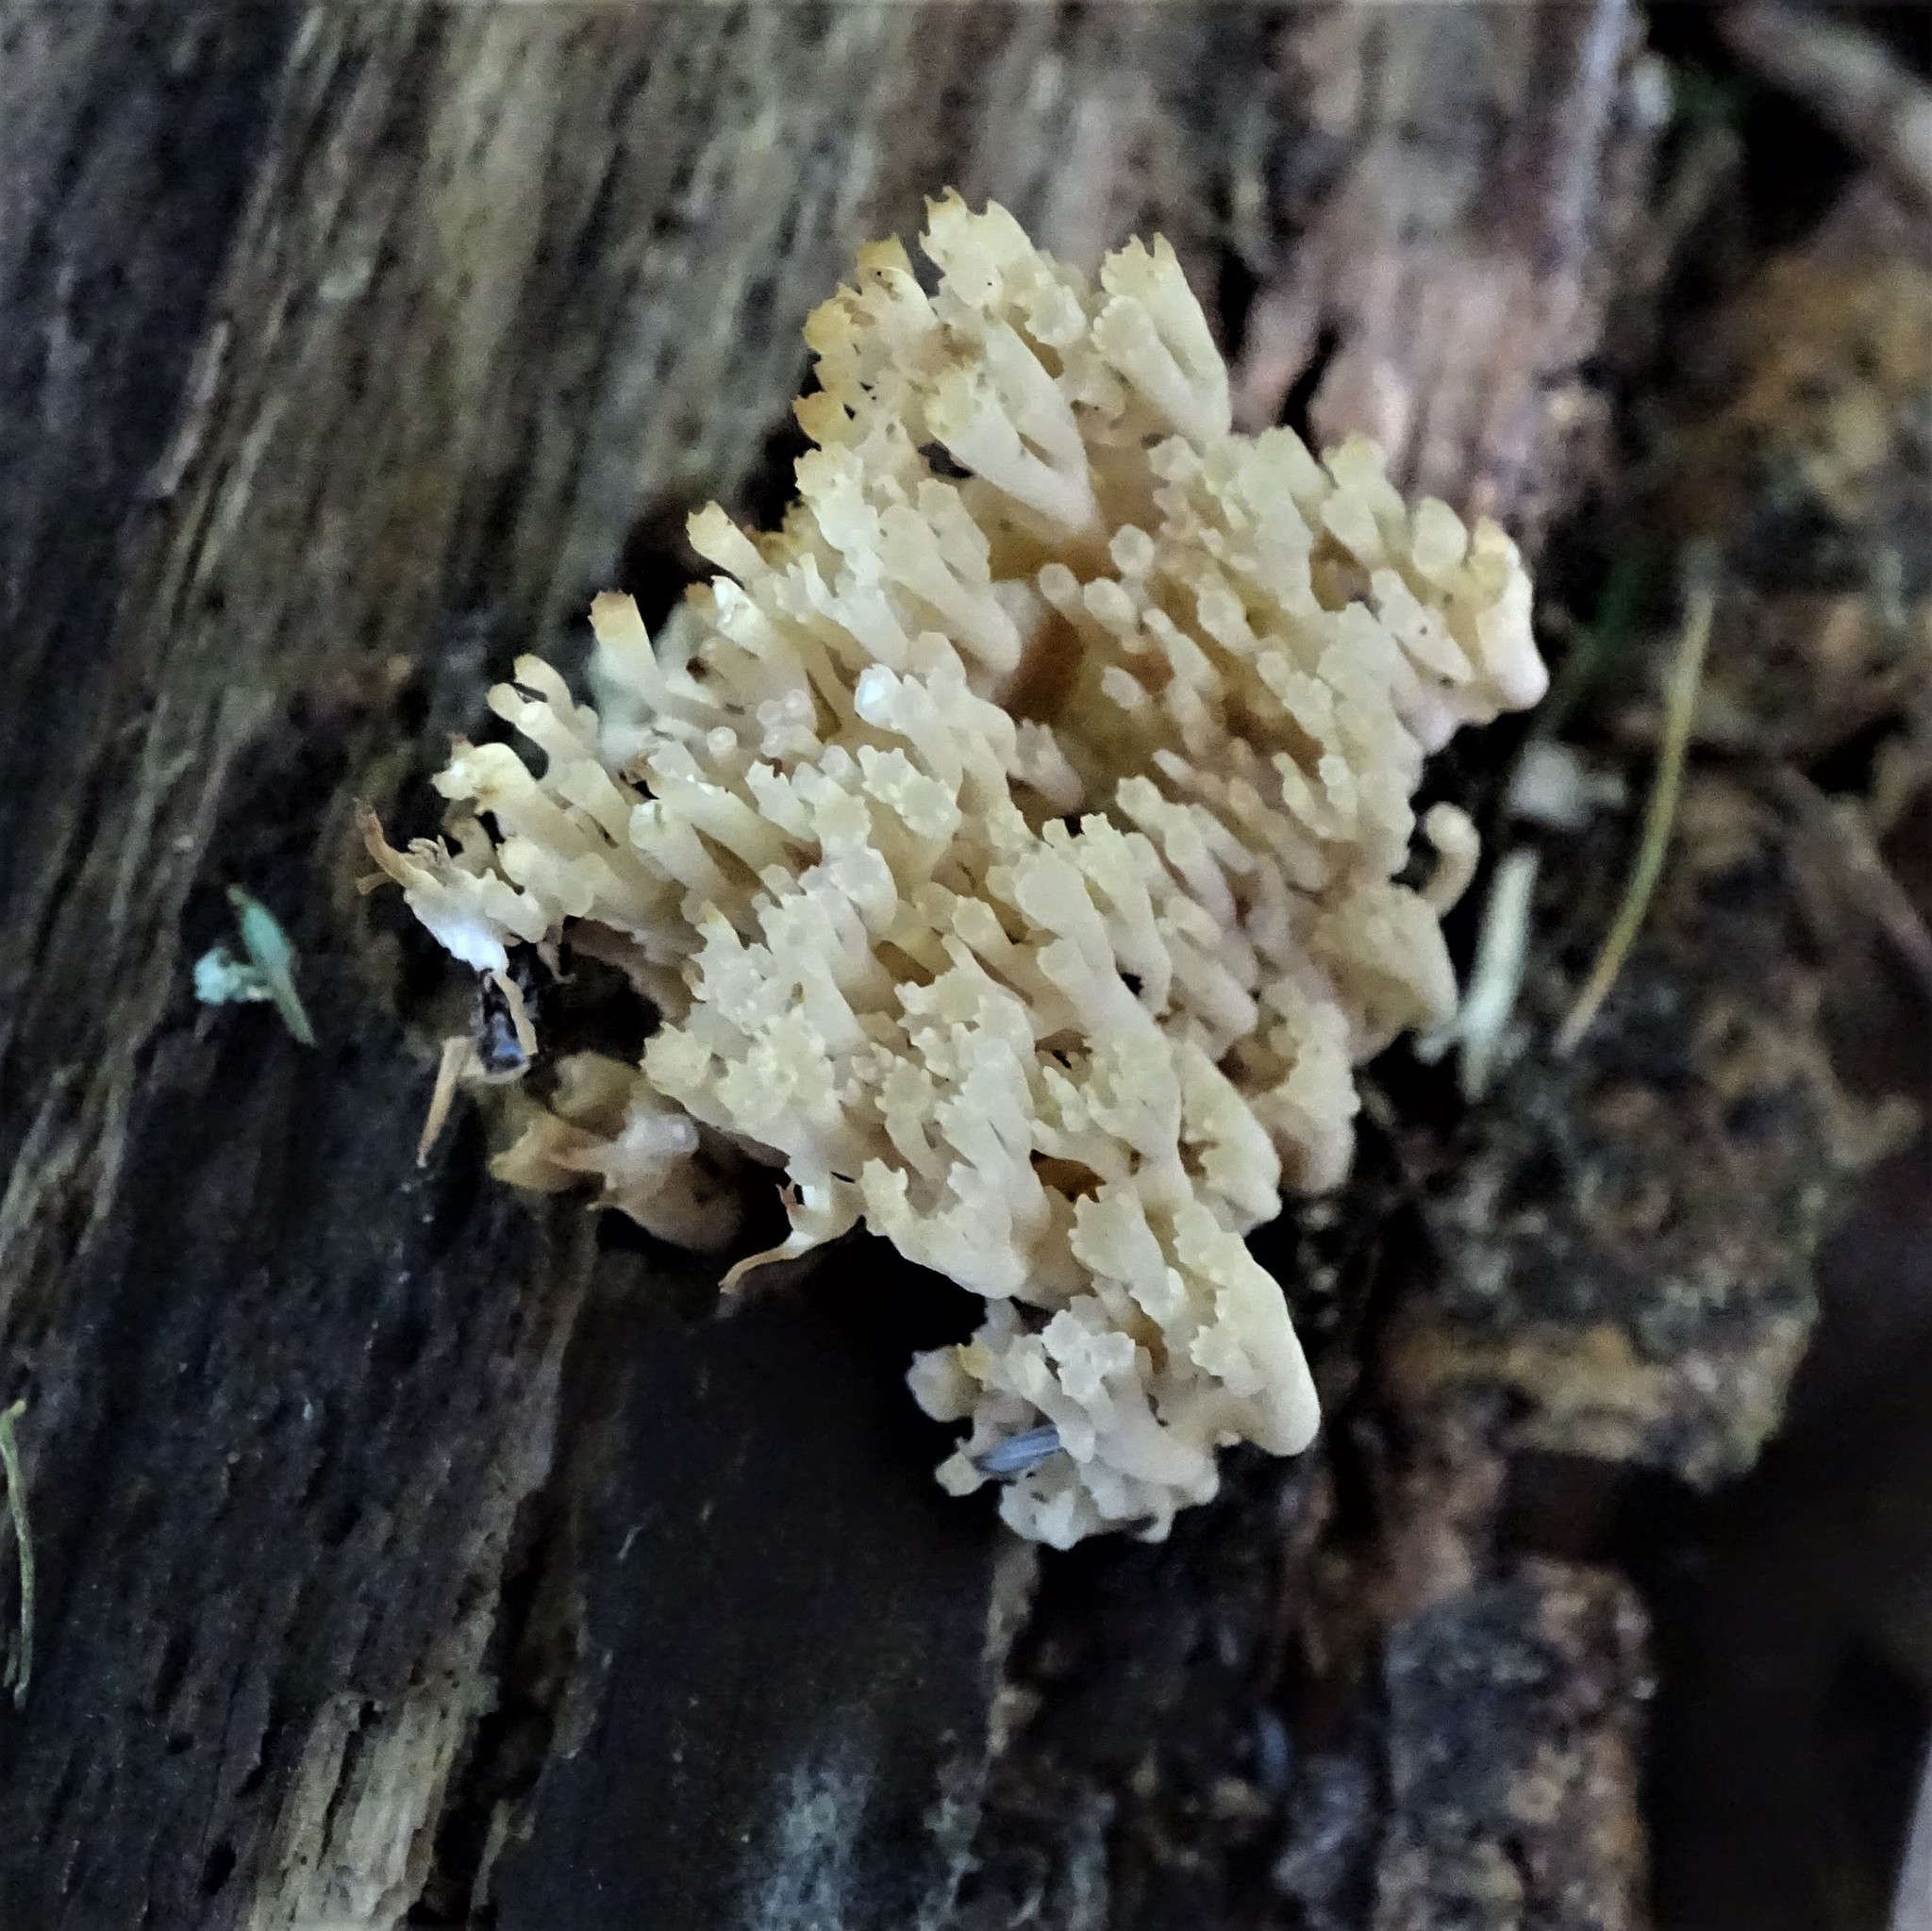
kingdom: Fungi
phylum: Basidiomycota
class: Agaricomycetes
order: Russulales
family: Auriscalpiaceae
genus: Artomyces
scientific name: Artomyces pyxidatus
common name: Crown-tipped coral fungus
